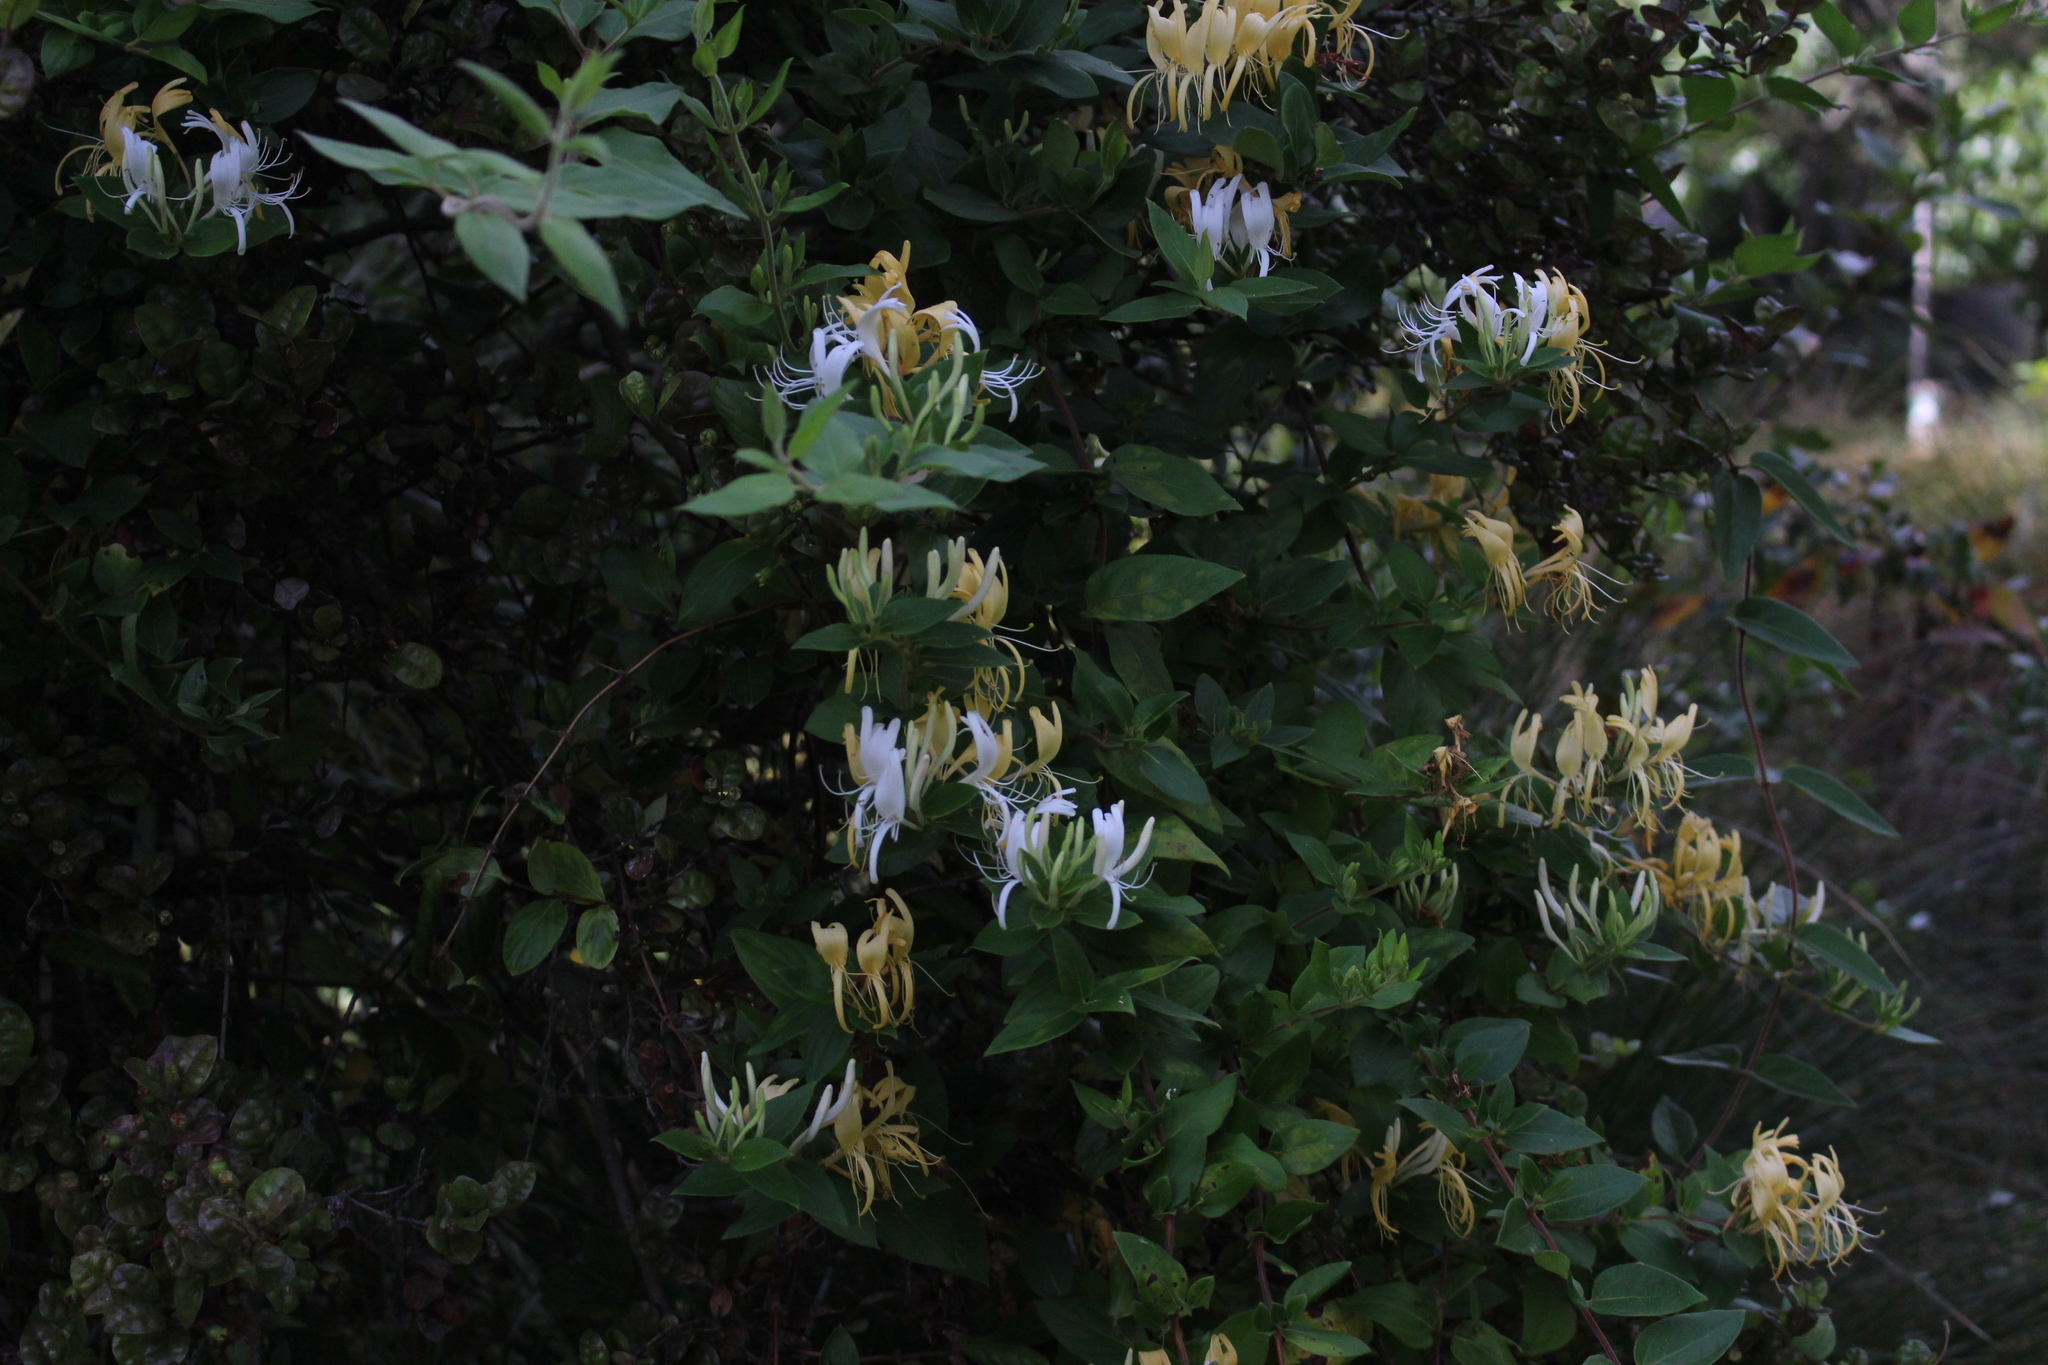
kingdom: Plantae
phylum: Tracheophyta
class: Magnoliopsida
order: Dipsacales
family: Caprifoliaceae
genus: Lonicera
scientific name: Lonicera japonica
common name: Japanese honeysuckle
